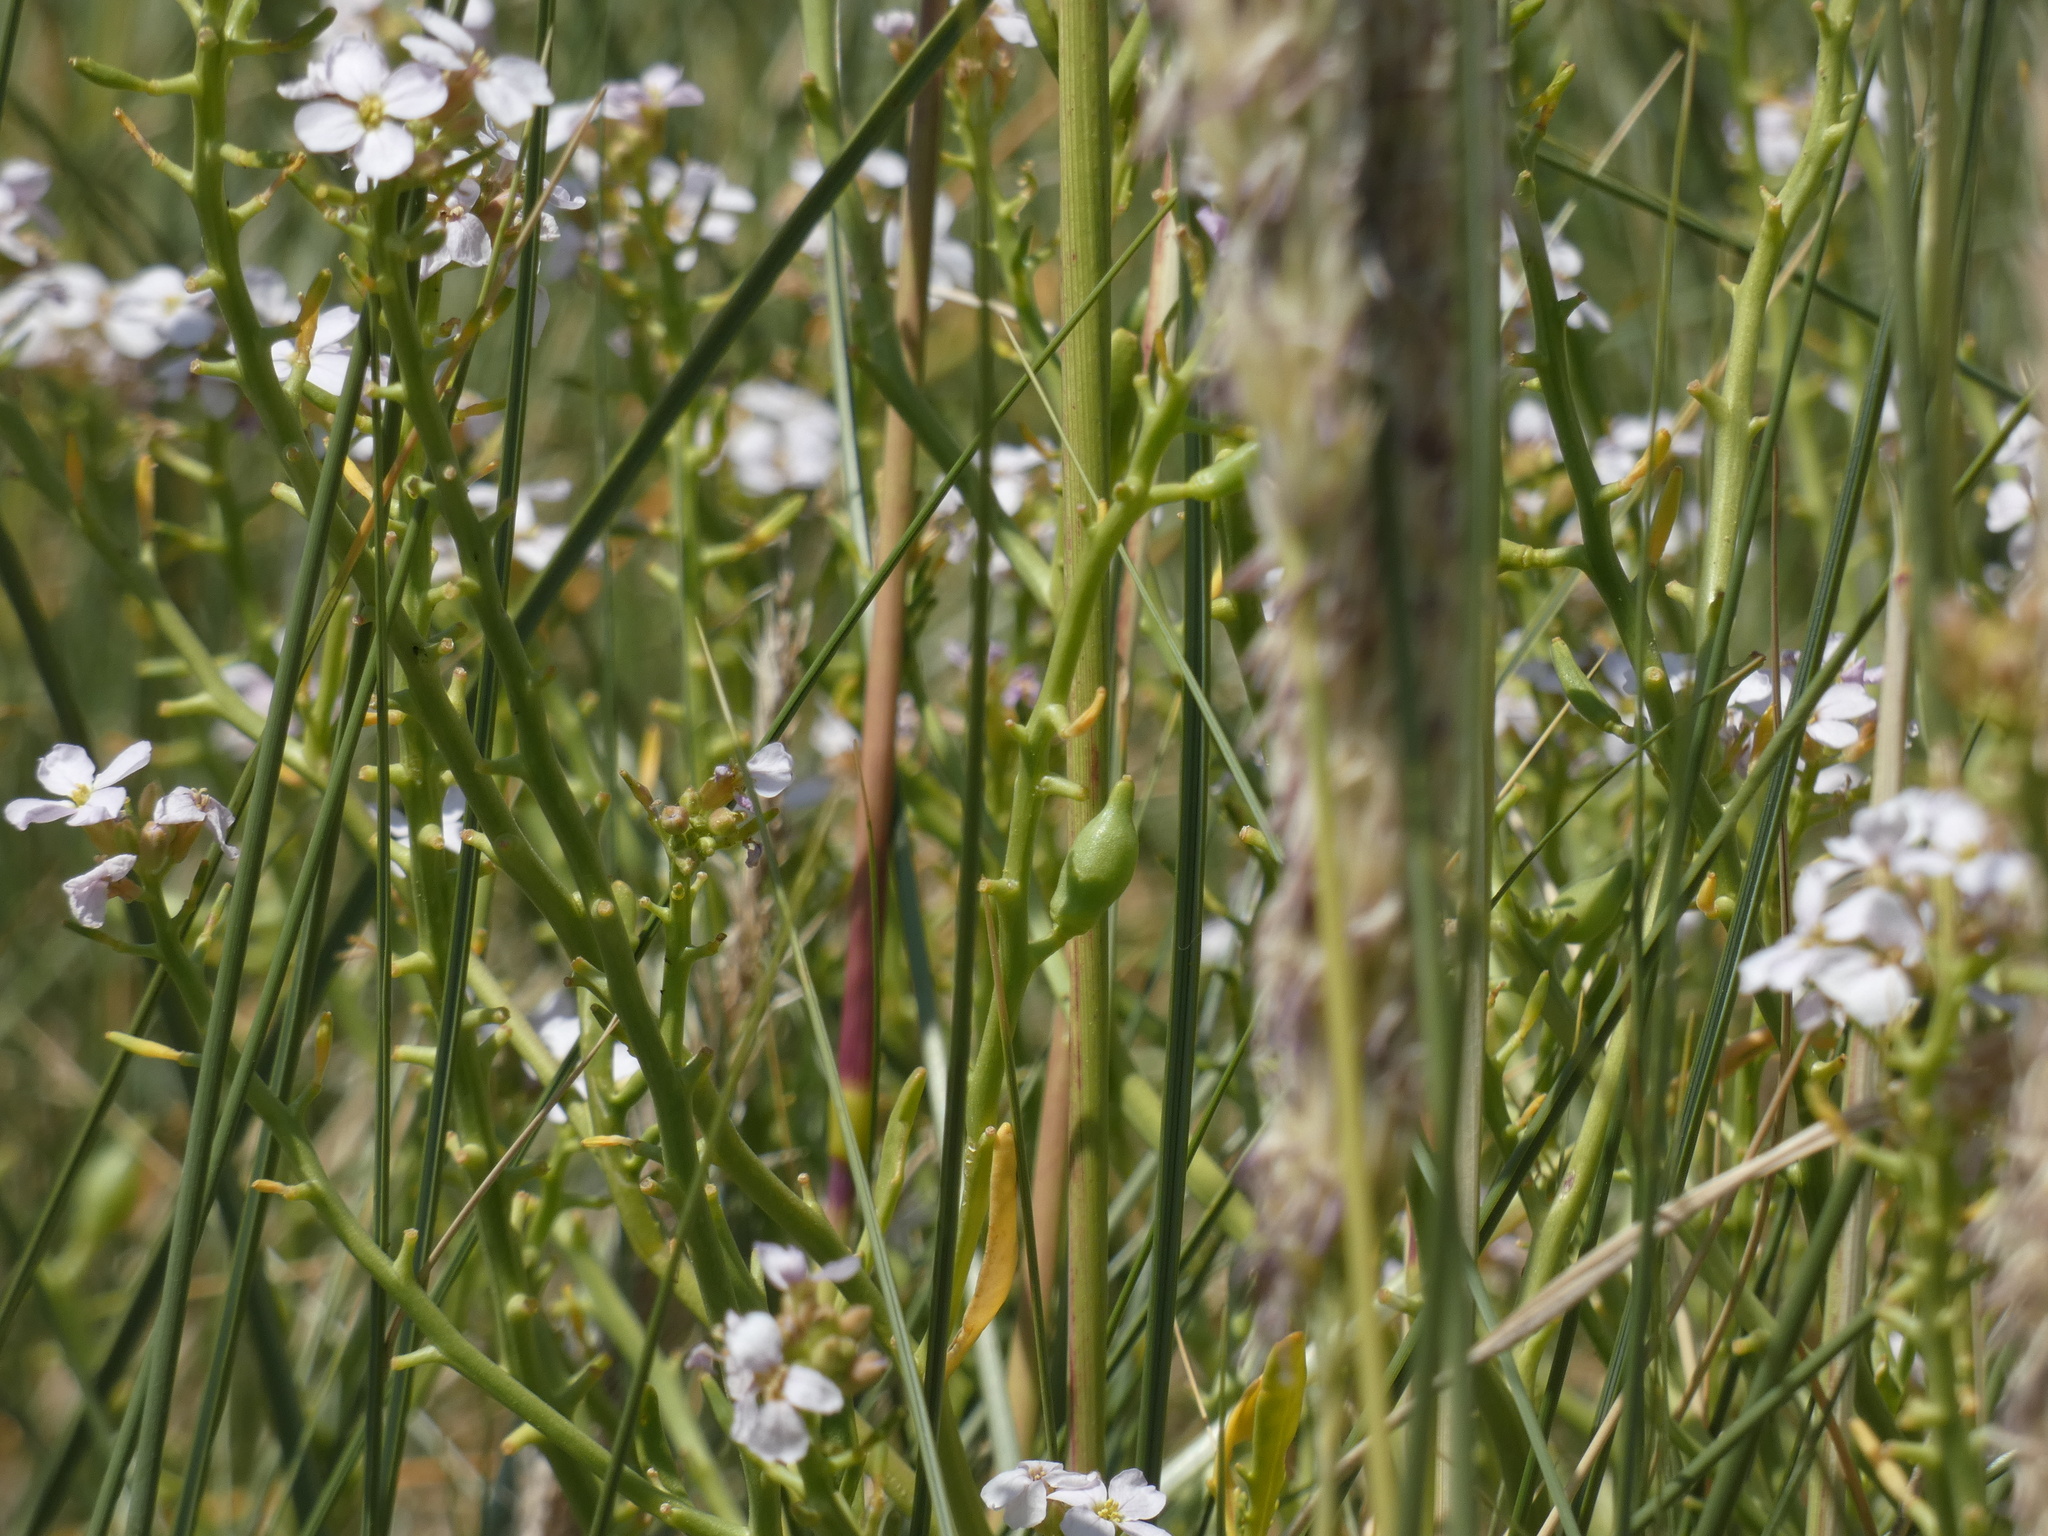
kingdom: Plantae
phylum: Tracheophyta
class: Magnoliopsida
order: Brassicales
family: Brassicaceae
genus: Cakile
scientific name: Cakile maritima
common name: Sea rocket
